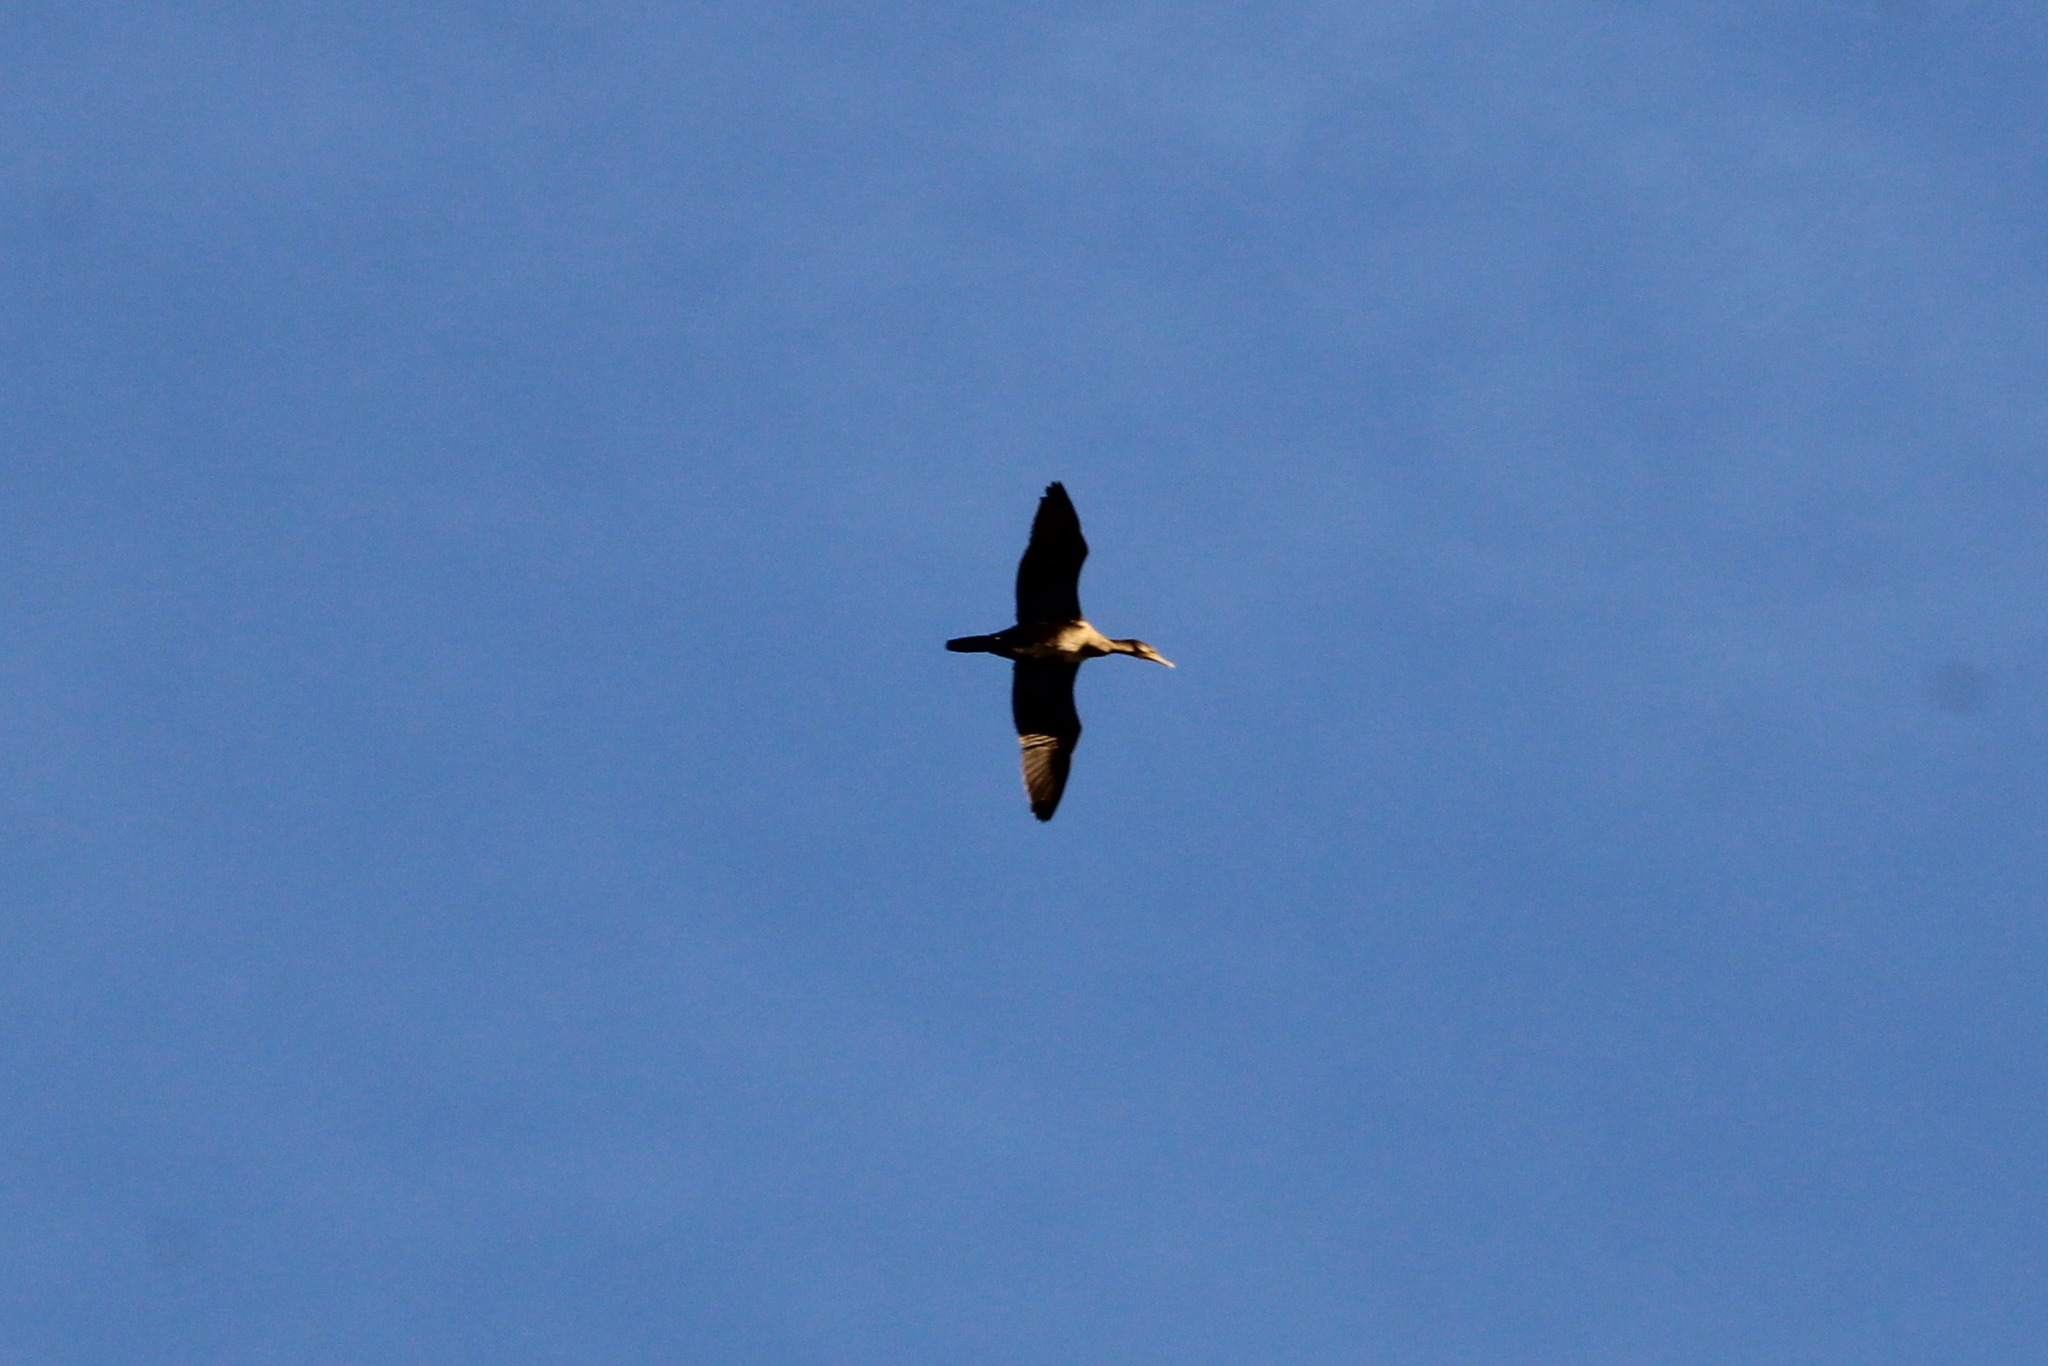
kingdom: Animalia
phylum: Chordata
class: Aves
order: Suliformes
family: Phalacrocoracidae
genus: Phalacrocorax
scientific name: Phalacrocorax carbo
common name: Great cormorant
